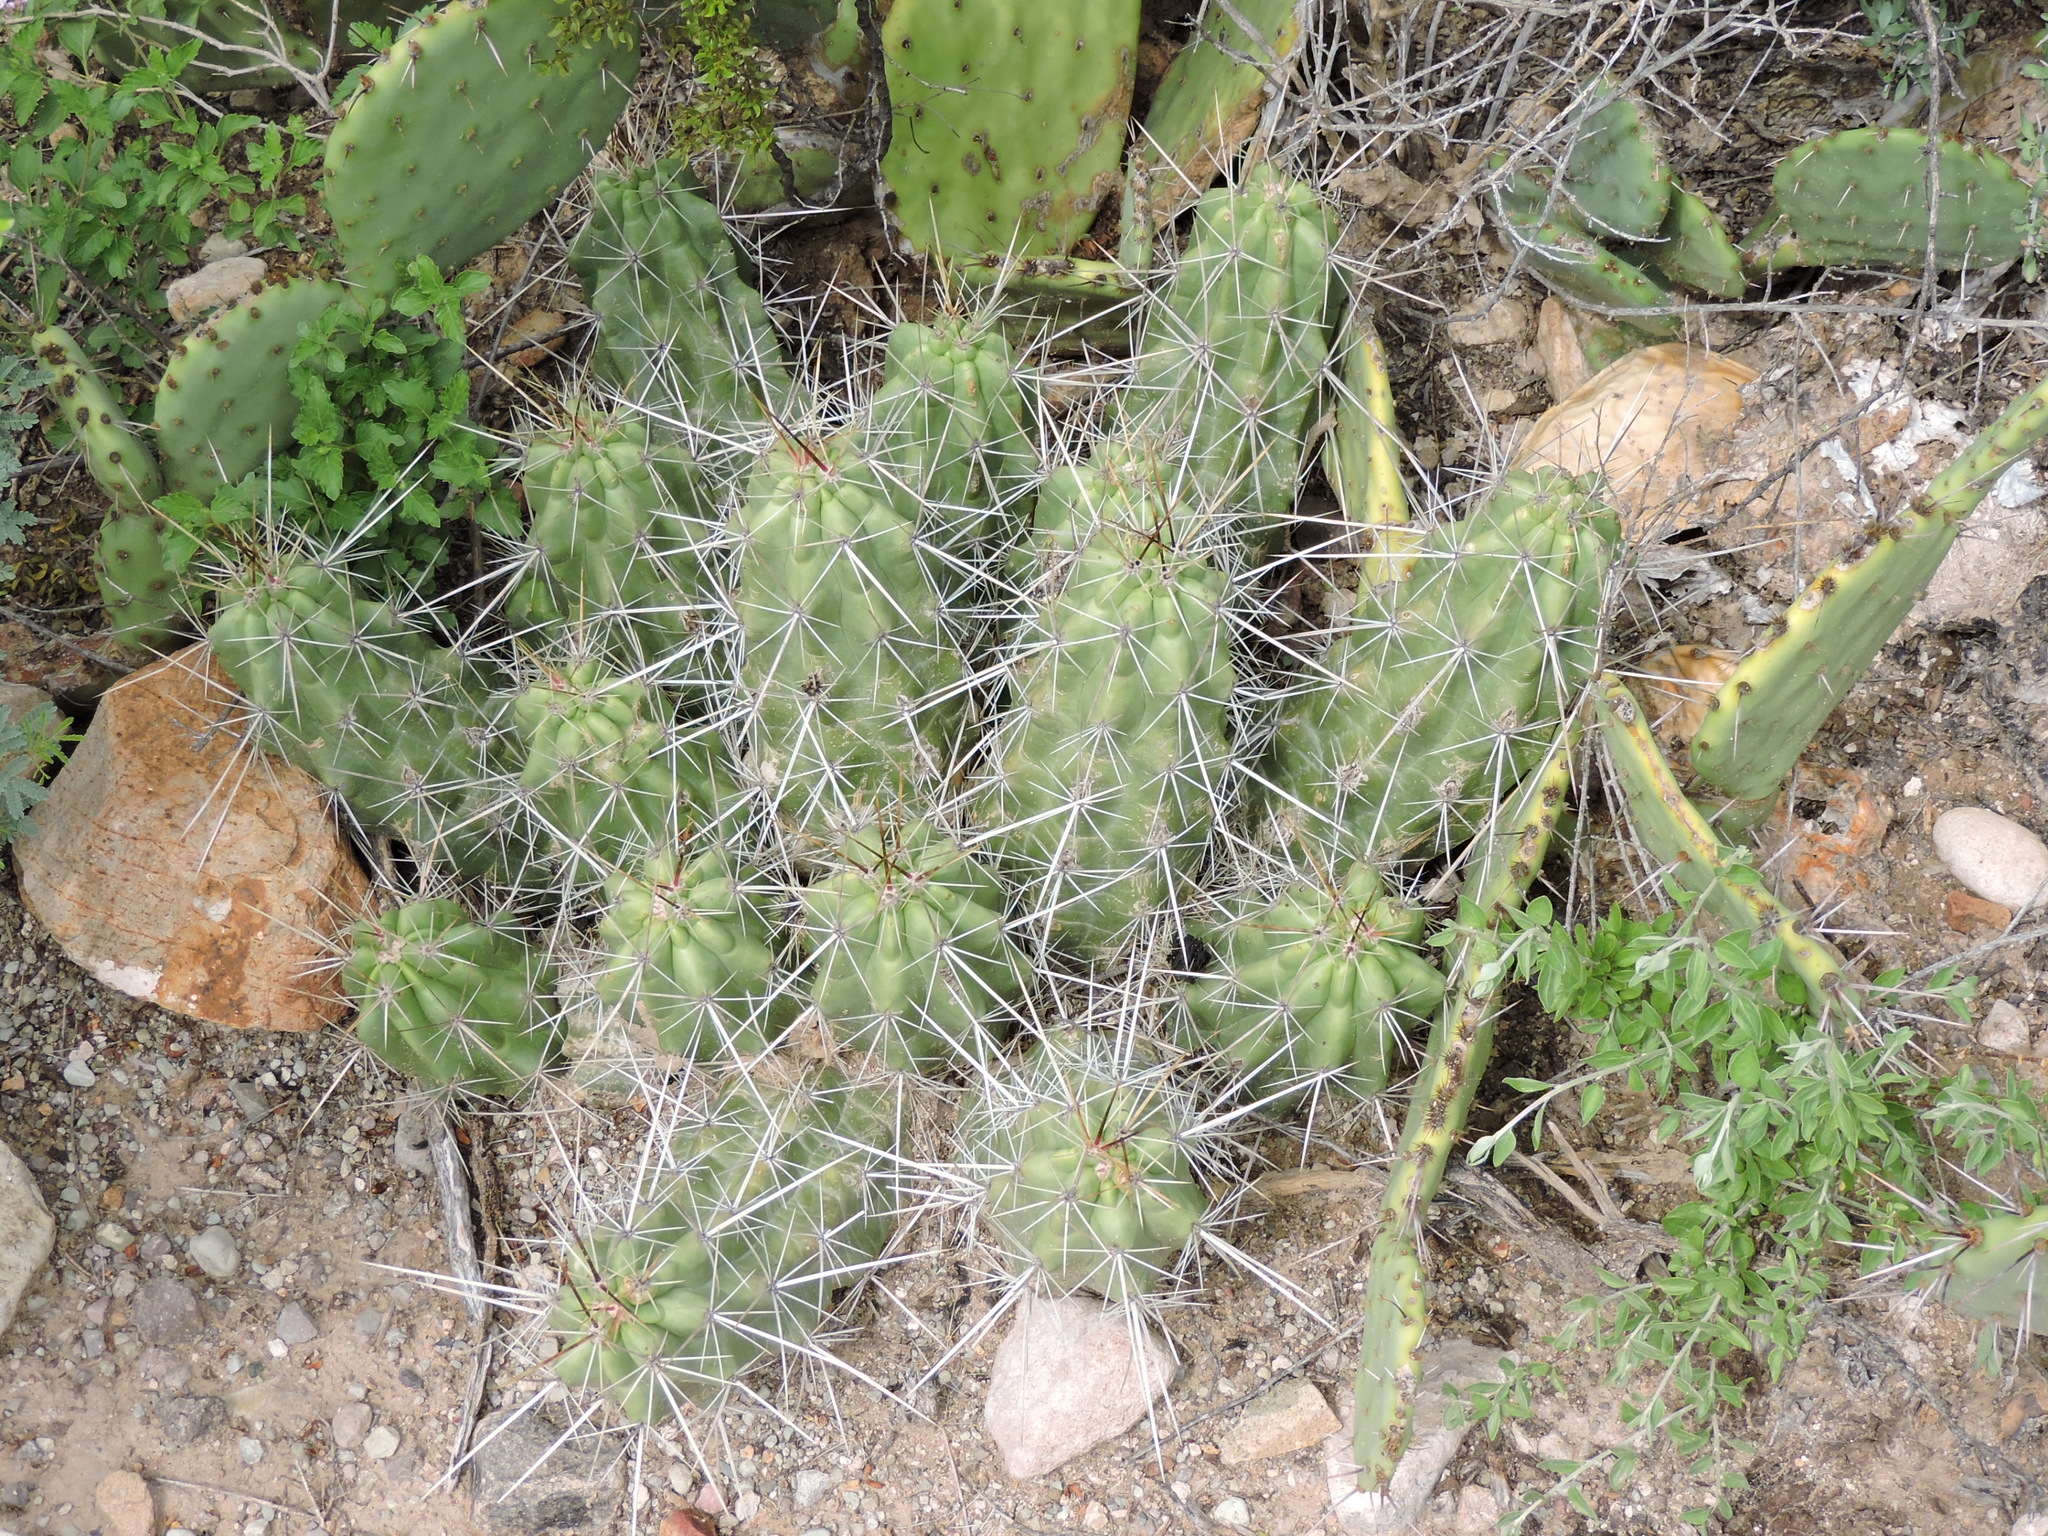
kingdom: Plantae
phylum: Tracheophyta
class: Magnoliopsida
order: Caryophyllales
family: Cactaceae
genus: Echinocereus
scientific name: Echinocereus enneacanthus
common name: Pitaya
